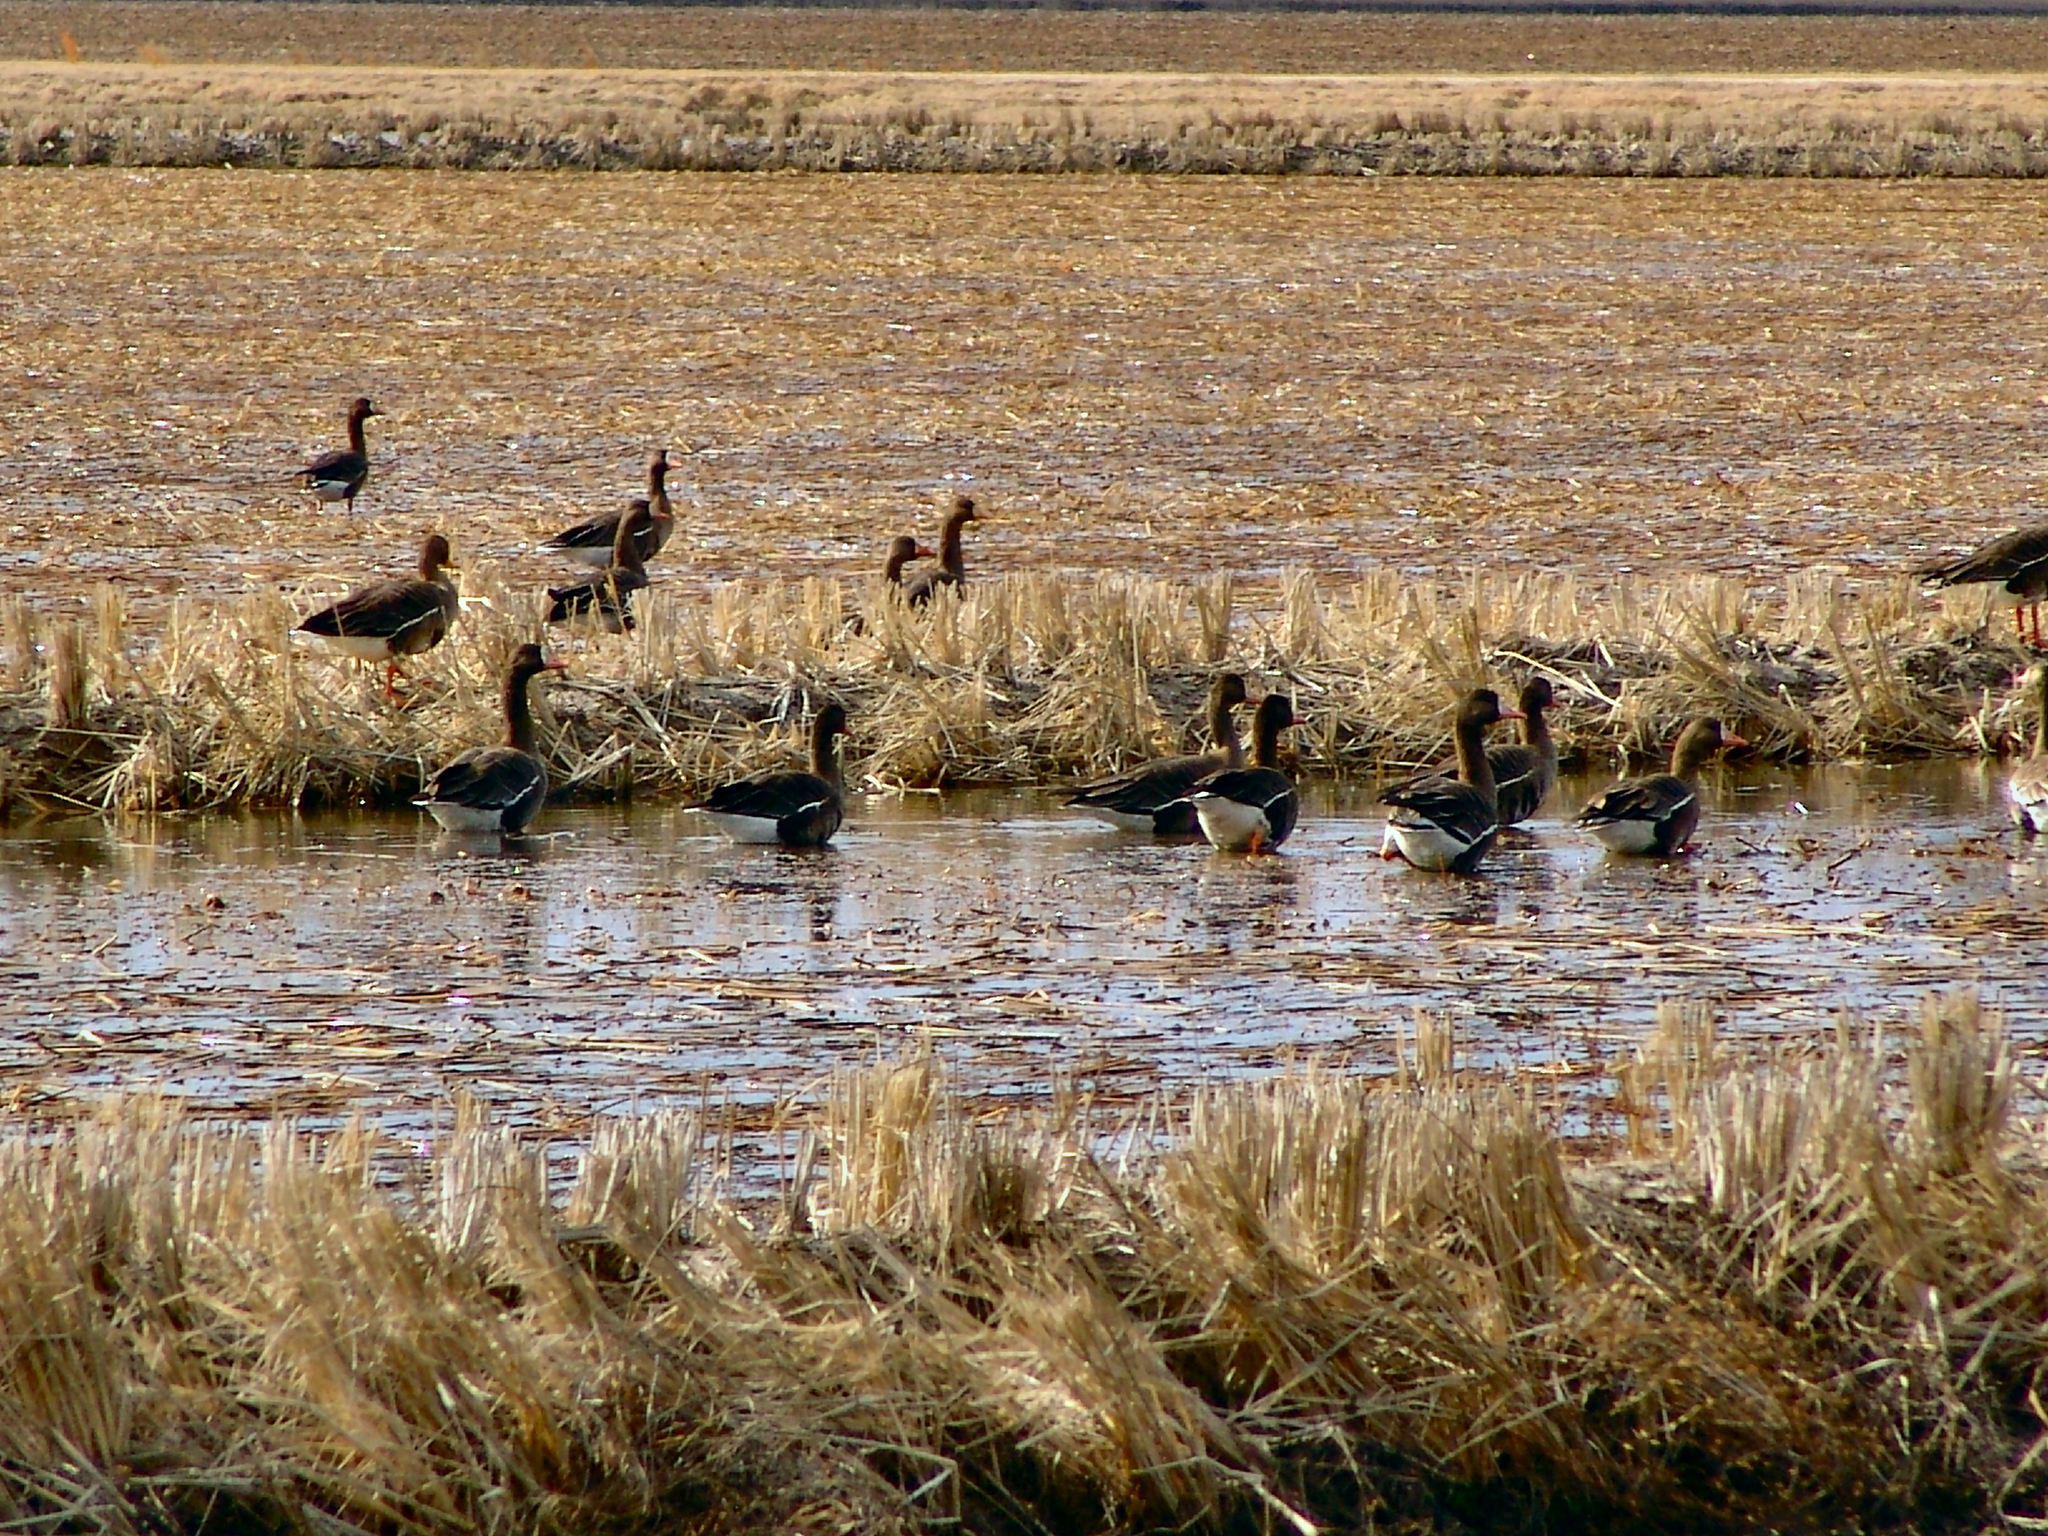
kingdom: Animalia
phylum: Chordata
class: Aves
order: Anseriformes
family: Anatidae
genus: Anser
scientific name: Anser albifrons
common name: Greater white-fronted goose
